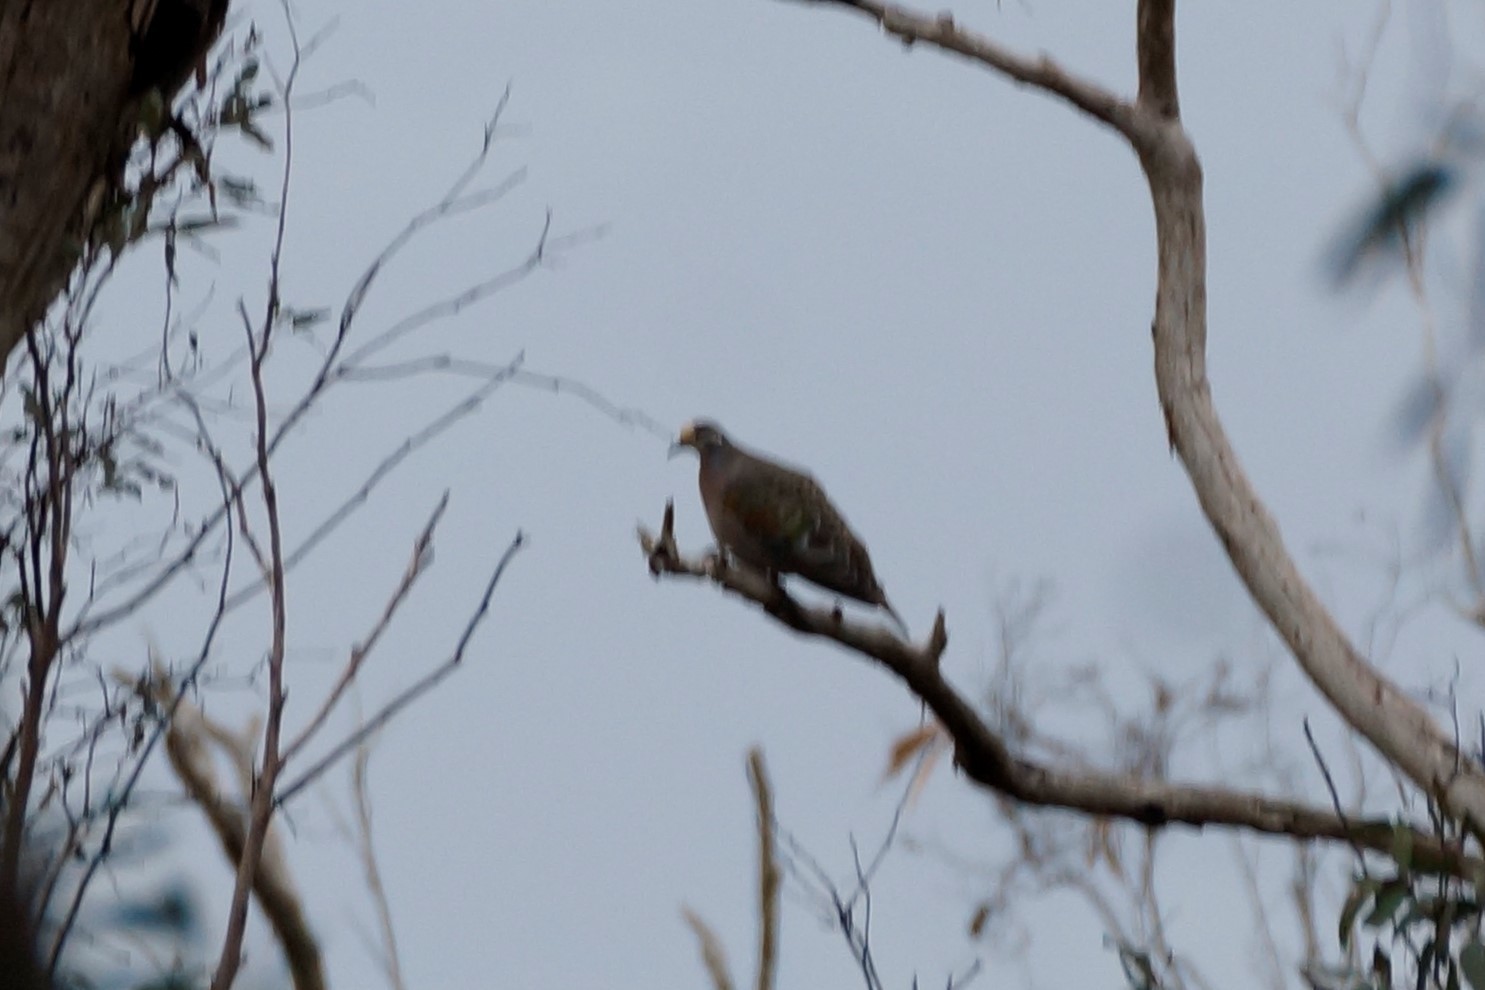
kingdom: Animalia
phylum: Chordata
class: Aves
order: Columbiformes
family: Columbidae
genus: Phaps
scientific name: Phaps chalcoptera
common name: Common bronzewing
